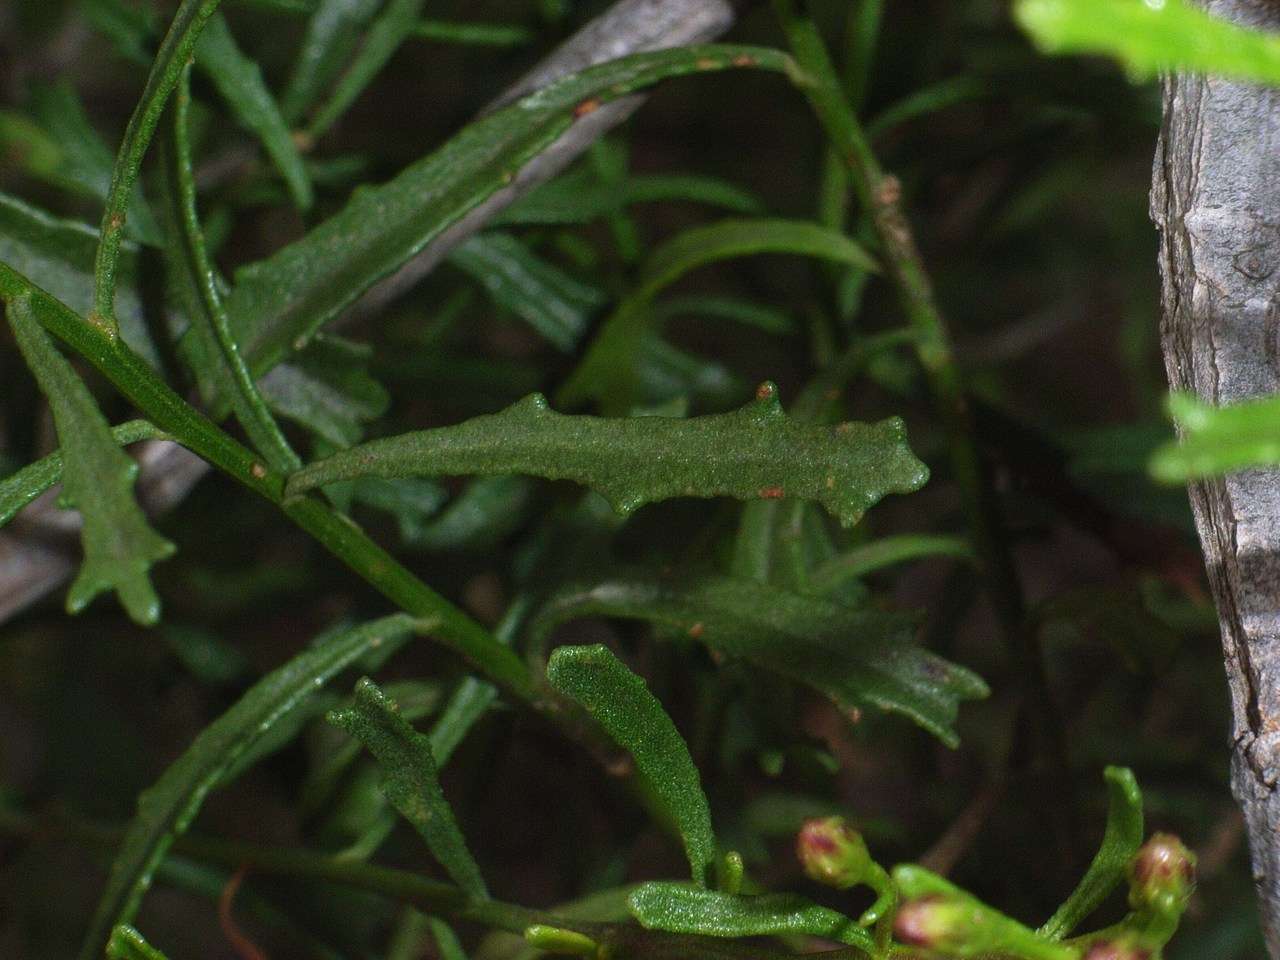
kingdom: Plantae
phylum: Tracheophyta
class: Magnoliopsida
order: Asterales
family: Asteraceae
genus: Olearia
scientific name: Olearia decurrens
